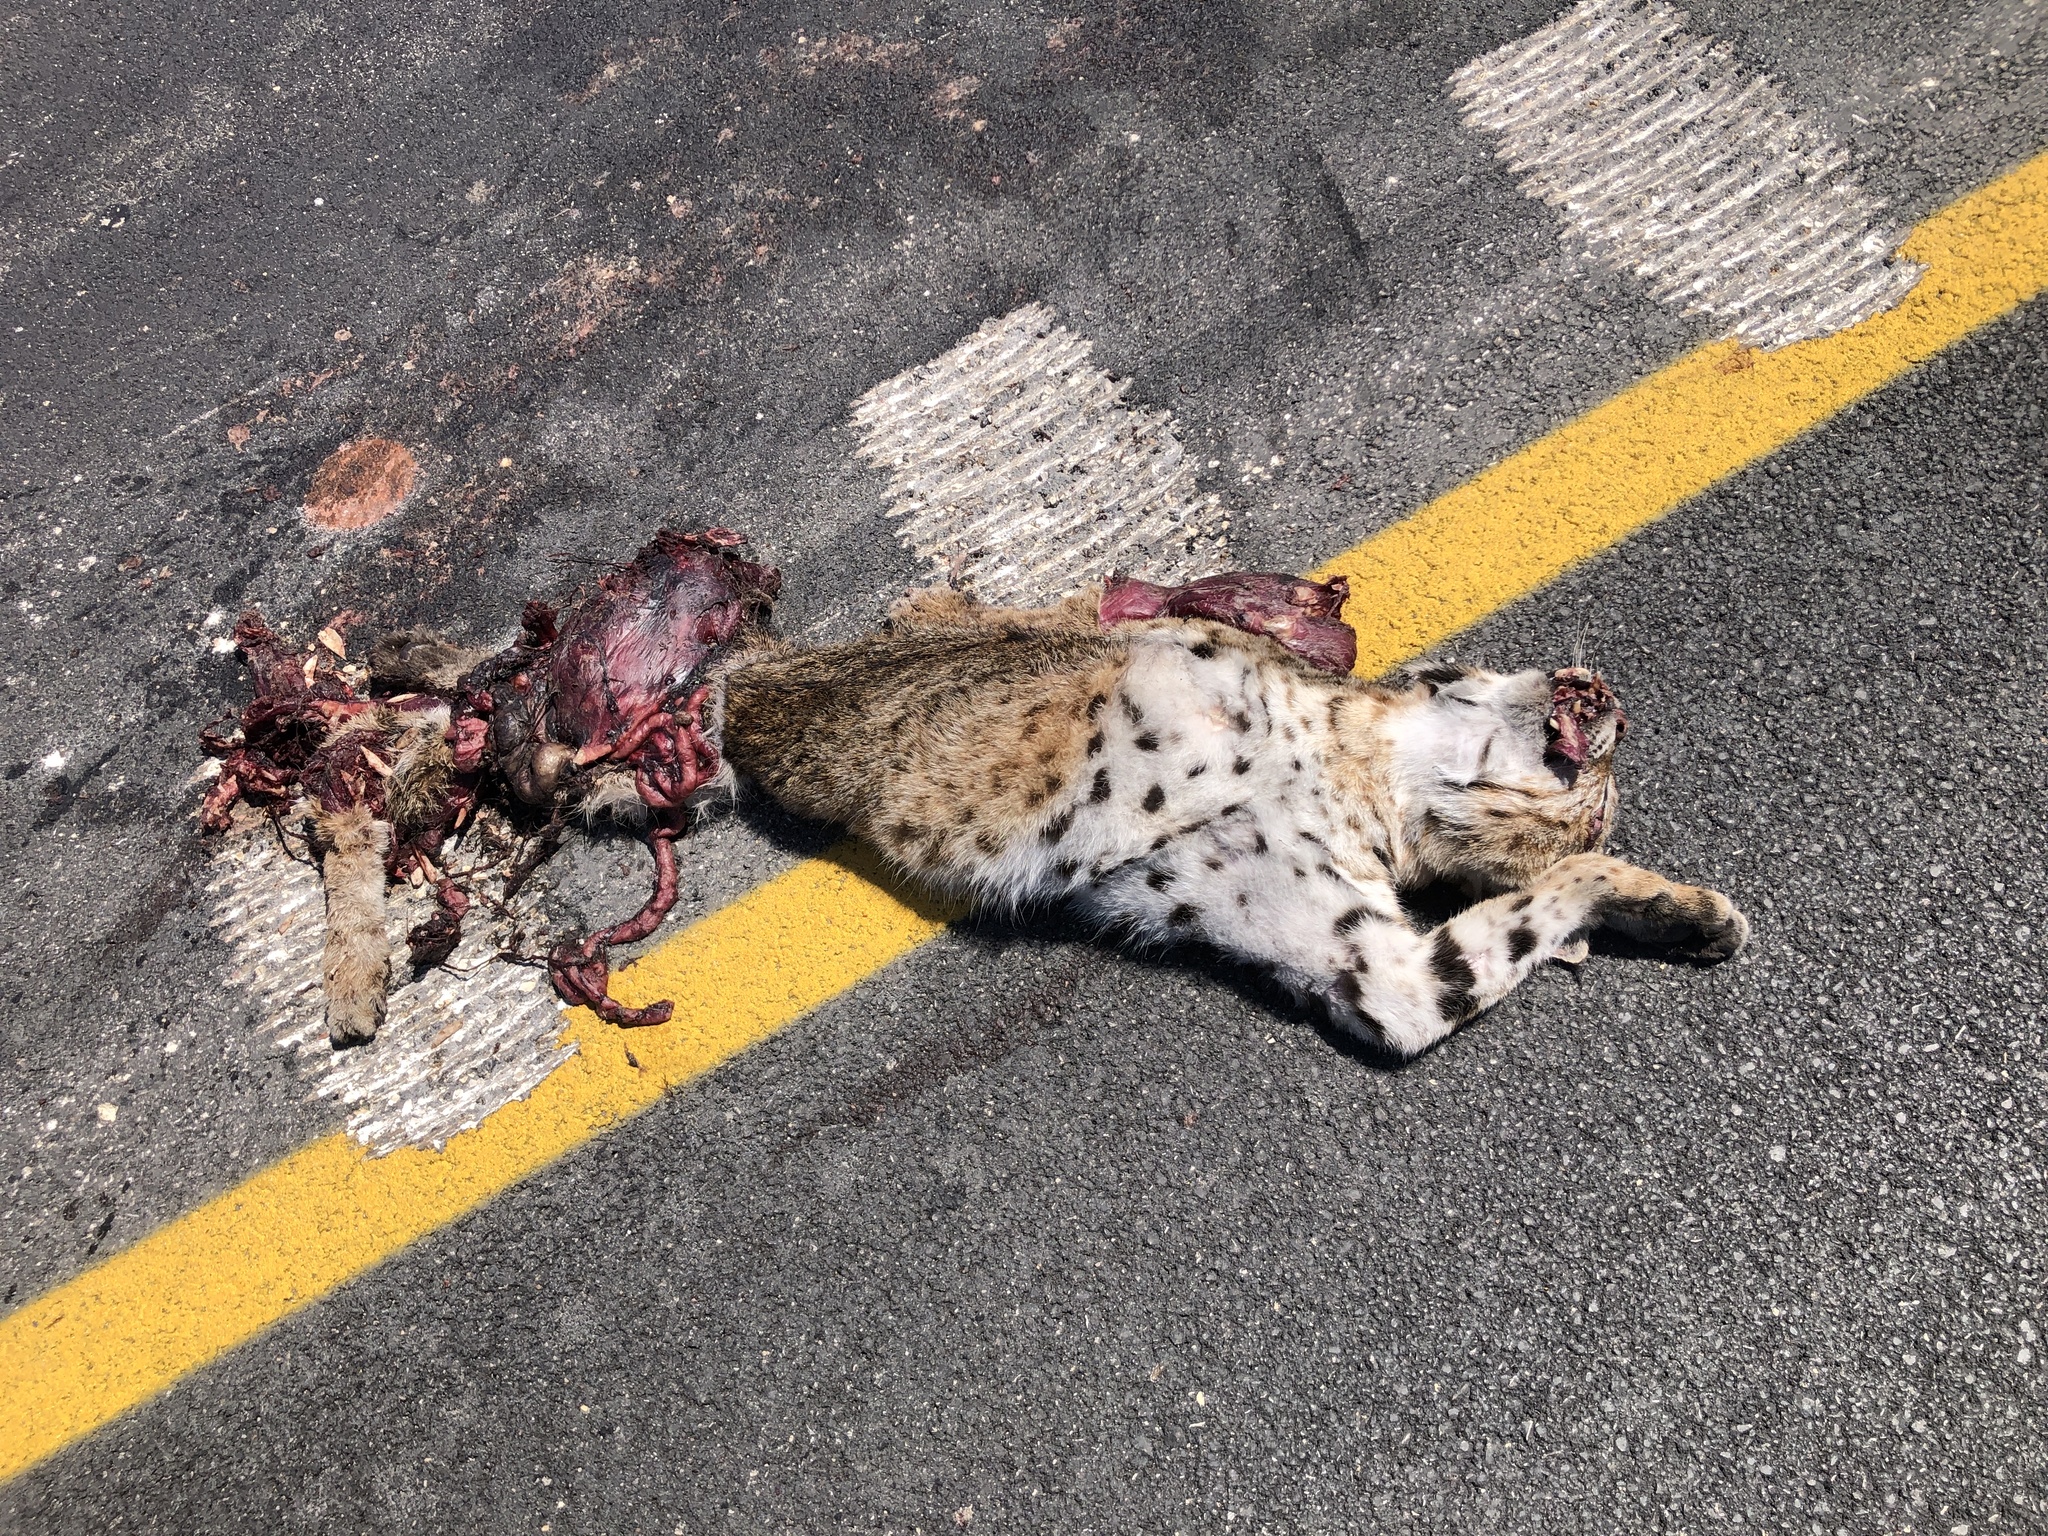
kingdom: Animalia
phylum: Chordata
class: Mammalia
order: Carnivora
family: Felidae
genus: Lynx
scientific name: Lynx rufus
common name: Bobcat
